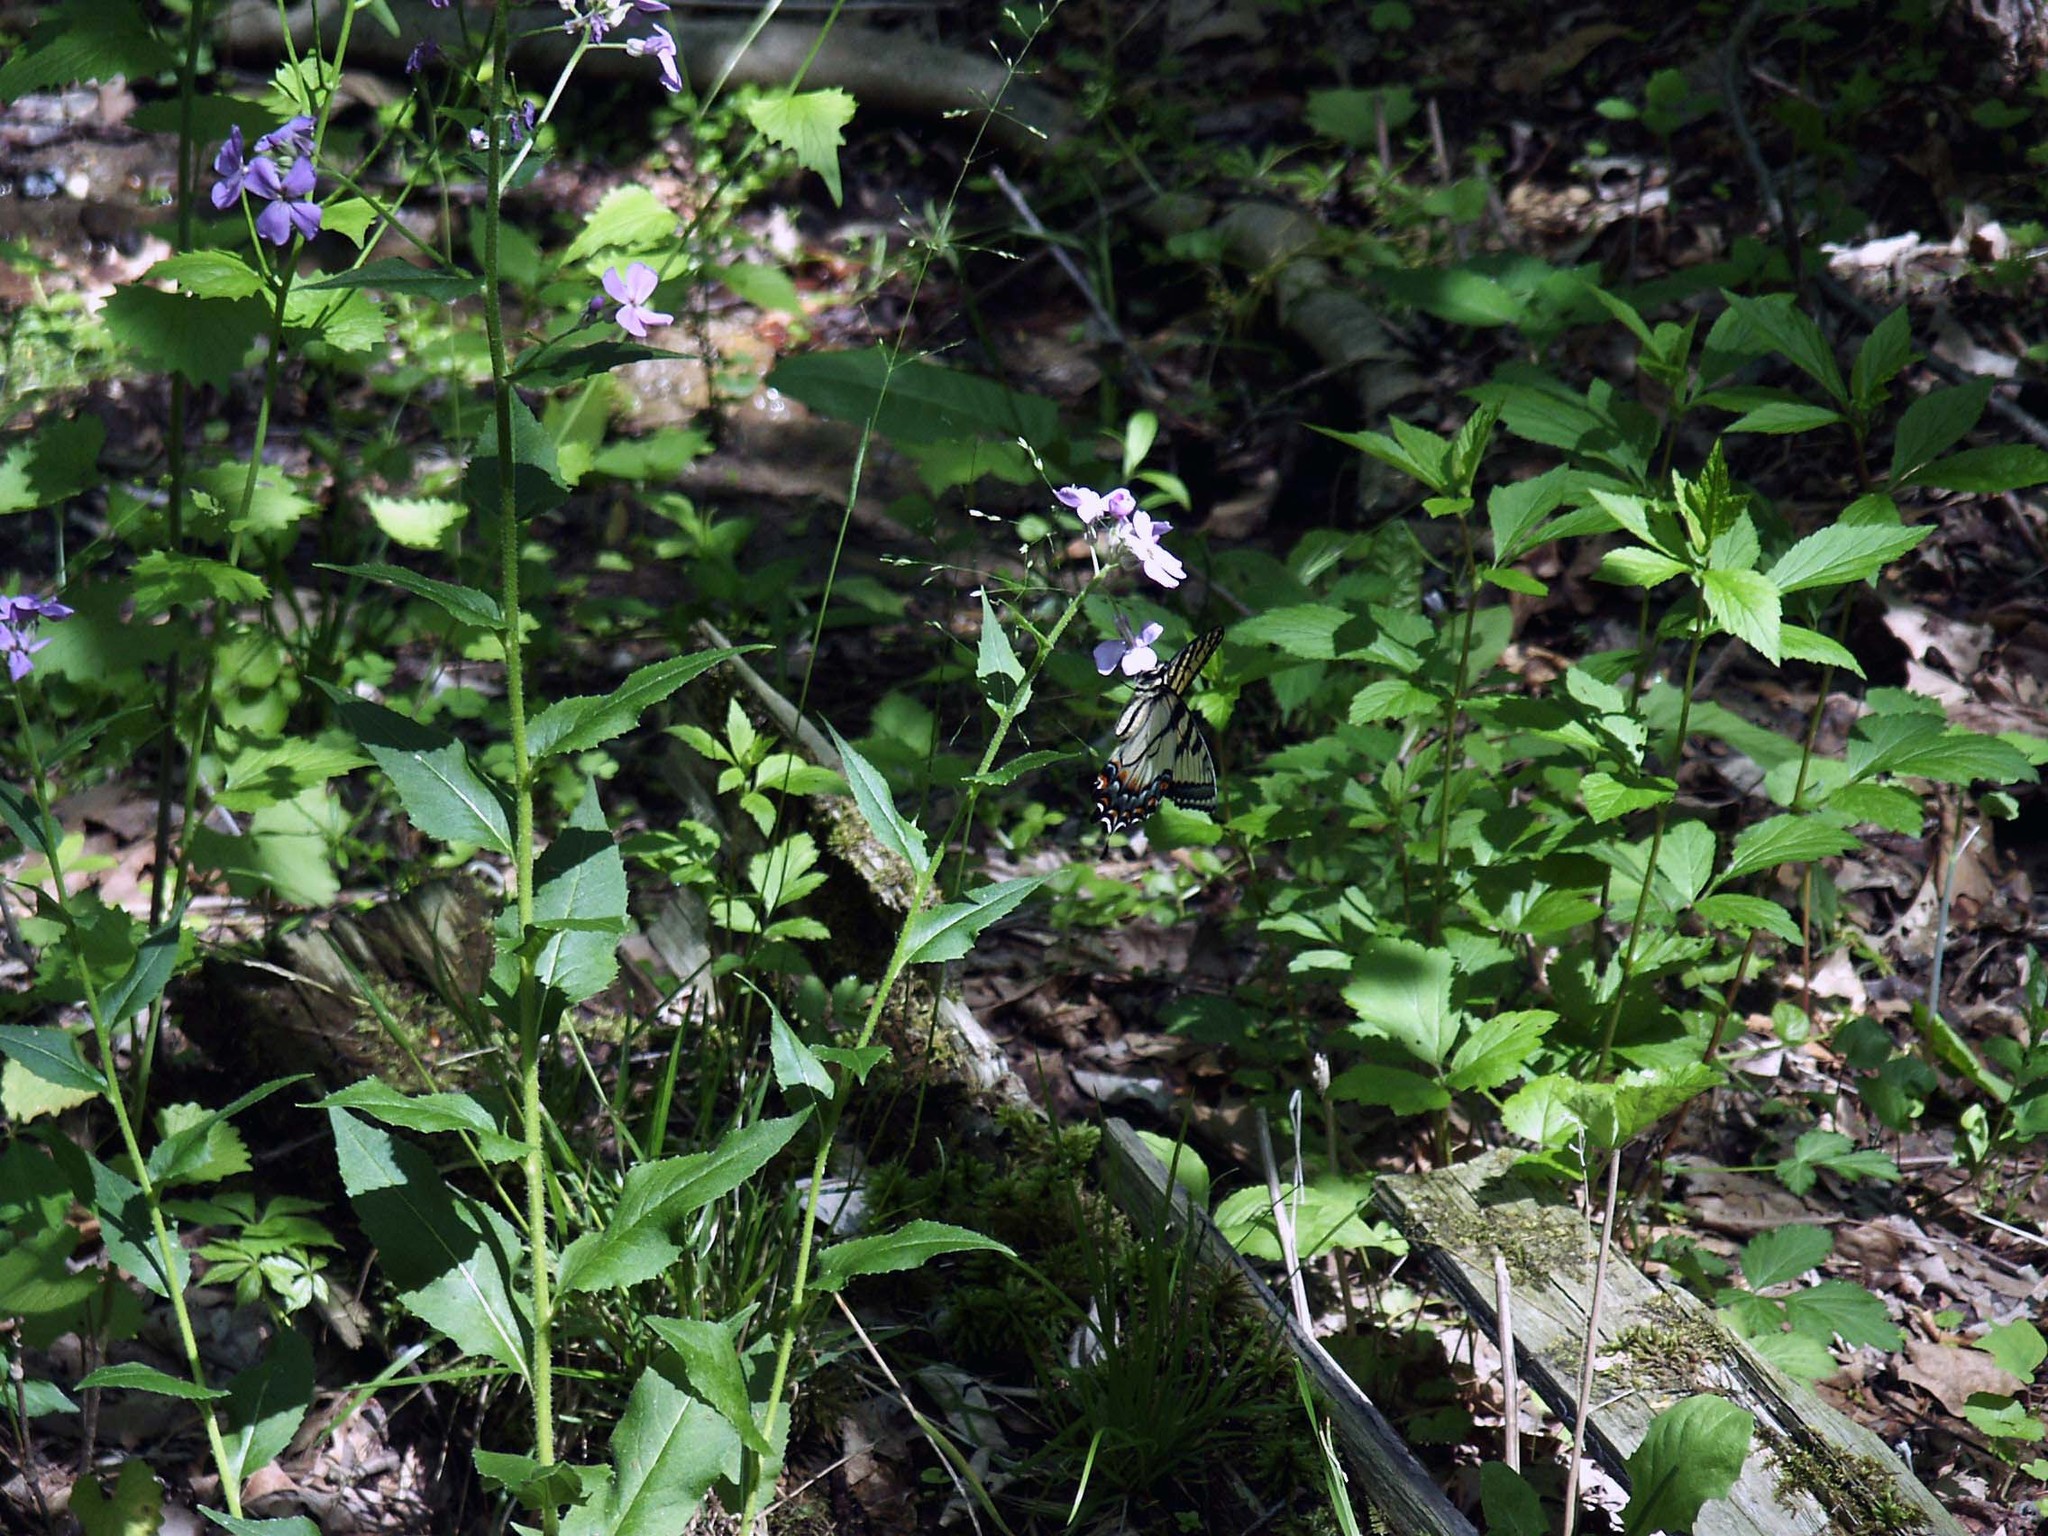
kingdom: Animalia
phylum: Arthropoda
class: Insecta
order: Lepidoptera
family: Papilionidae
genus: Papilio
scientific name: Papilio glaucus
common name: Tiger swallowtail
